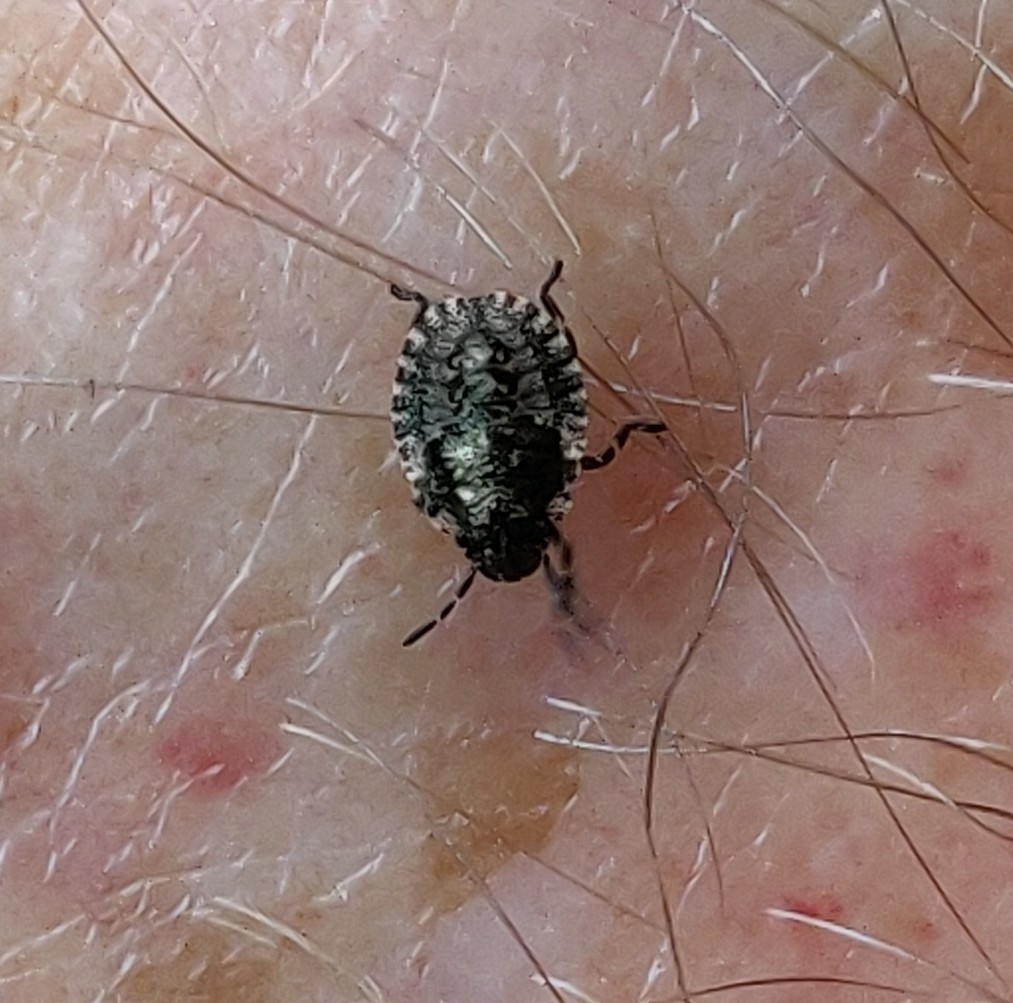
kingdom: Animalia
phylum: Arthropoda
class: Insecta
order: Hemiptera
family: Pentatomidae
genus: Pentatoma
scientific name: Pentatoma rufipes
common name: Forest bug
